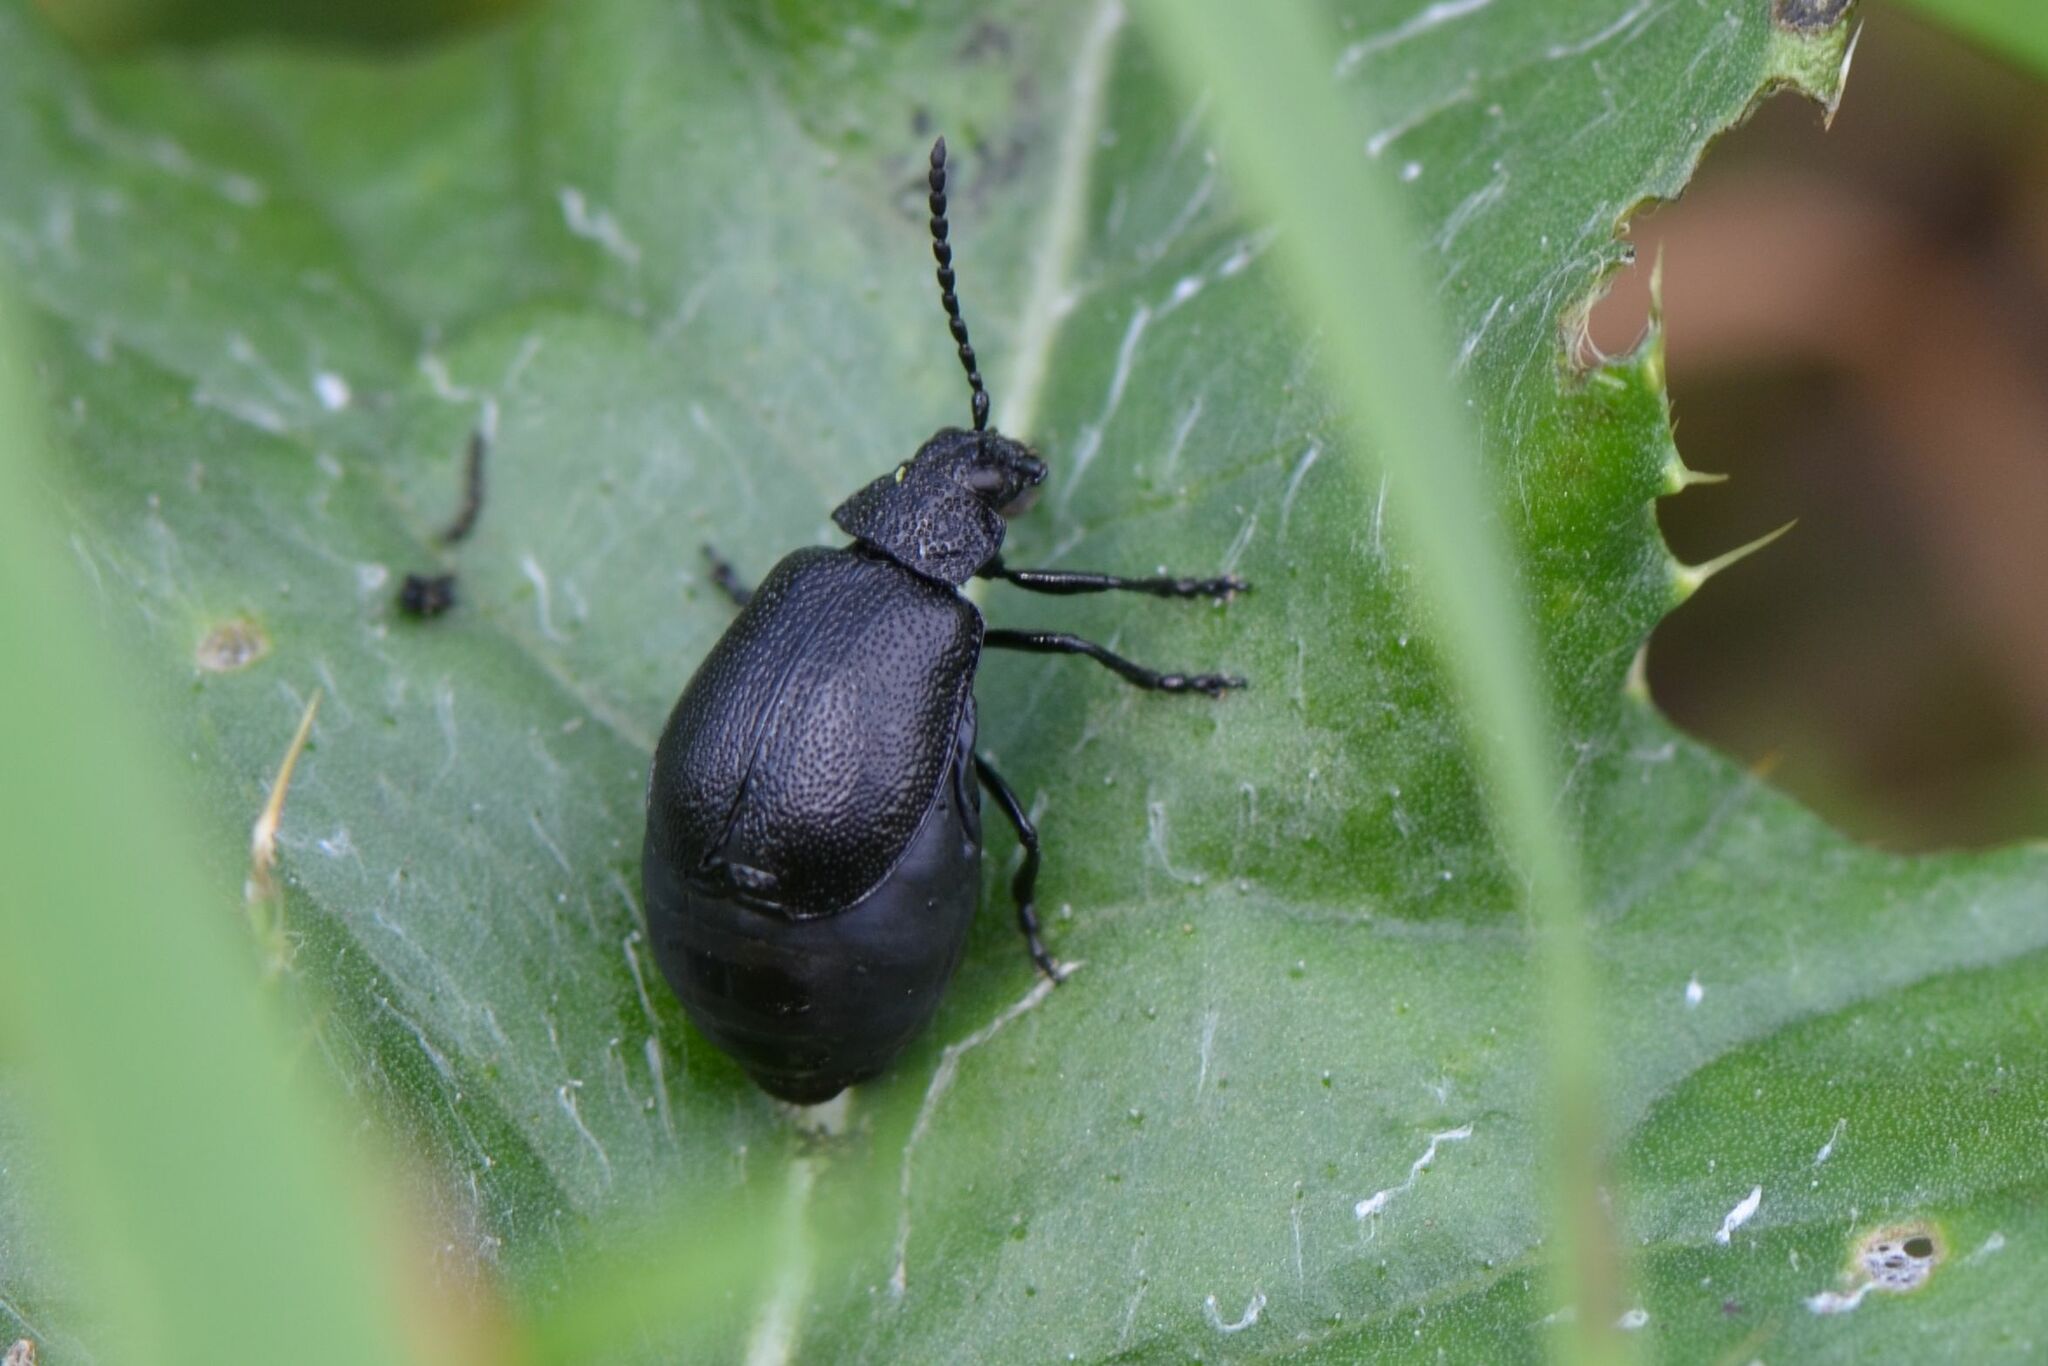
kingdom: Animalia
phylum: Arthropoda
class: Insecta
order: Coleoptera
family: Chrysomelidae
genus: Galeruca
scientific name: Galeruca tanaceti
